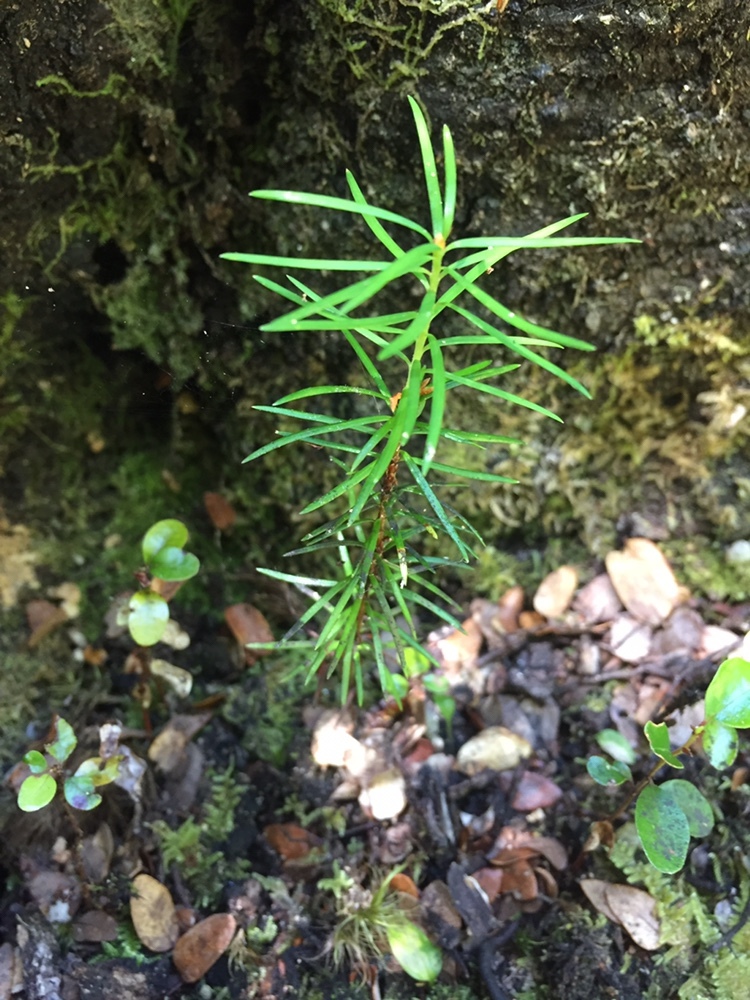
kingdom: Plantae
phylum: Tracheophyta
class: Pinopsida
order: Pinales
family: Pinaceae
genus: Pseudotsuga
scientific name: Pseudotsuga menziesii
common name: Douglas fir
